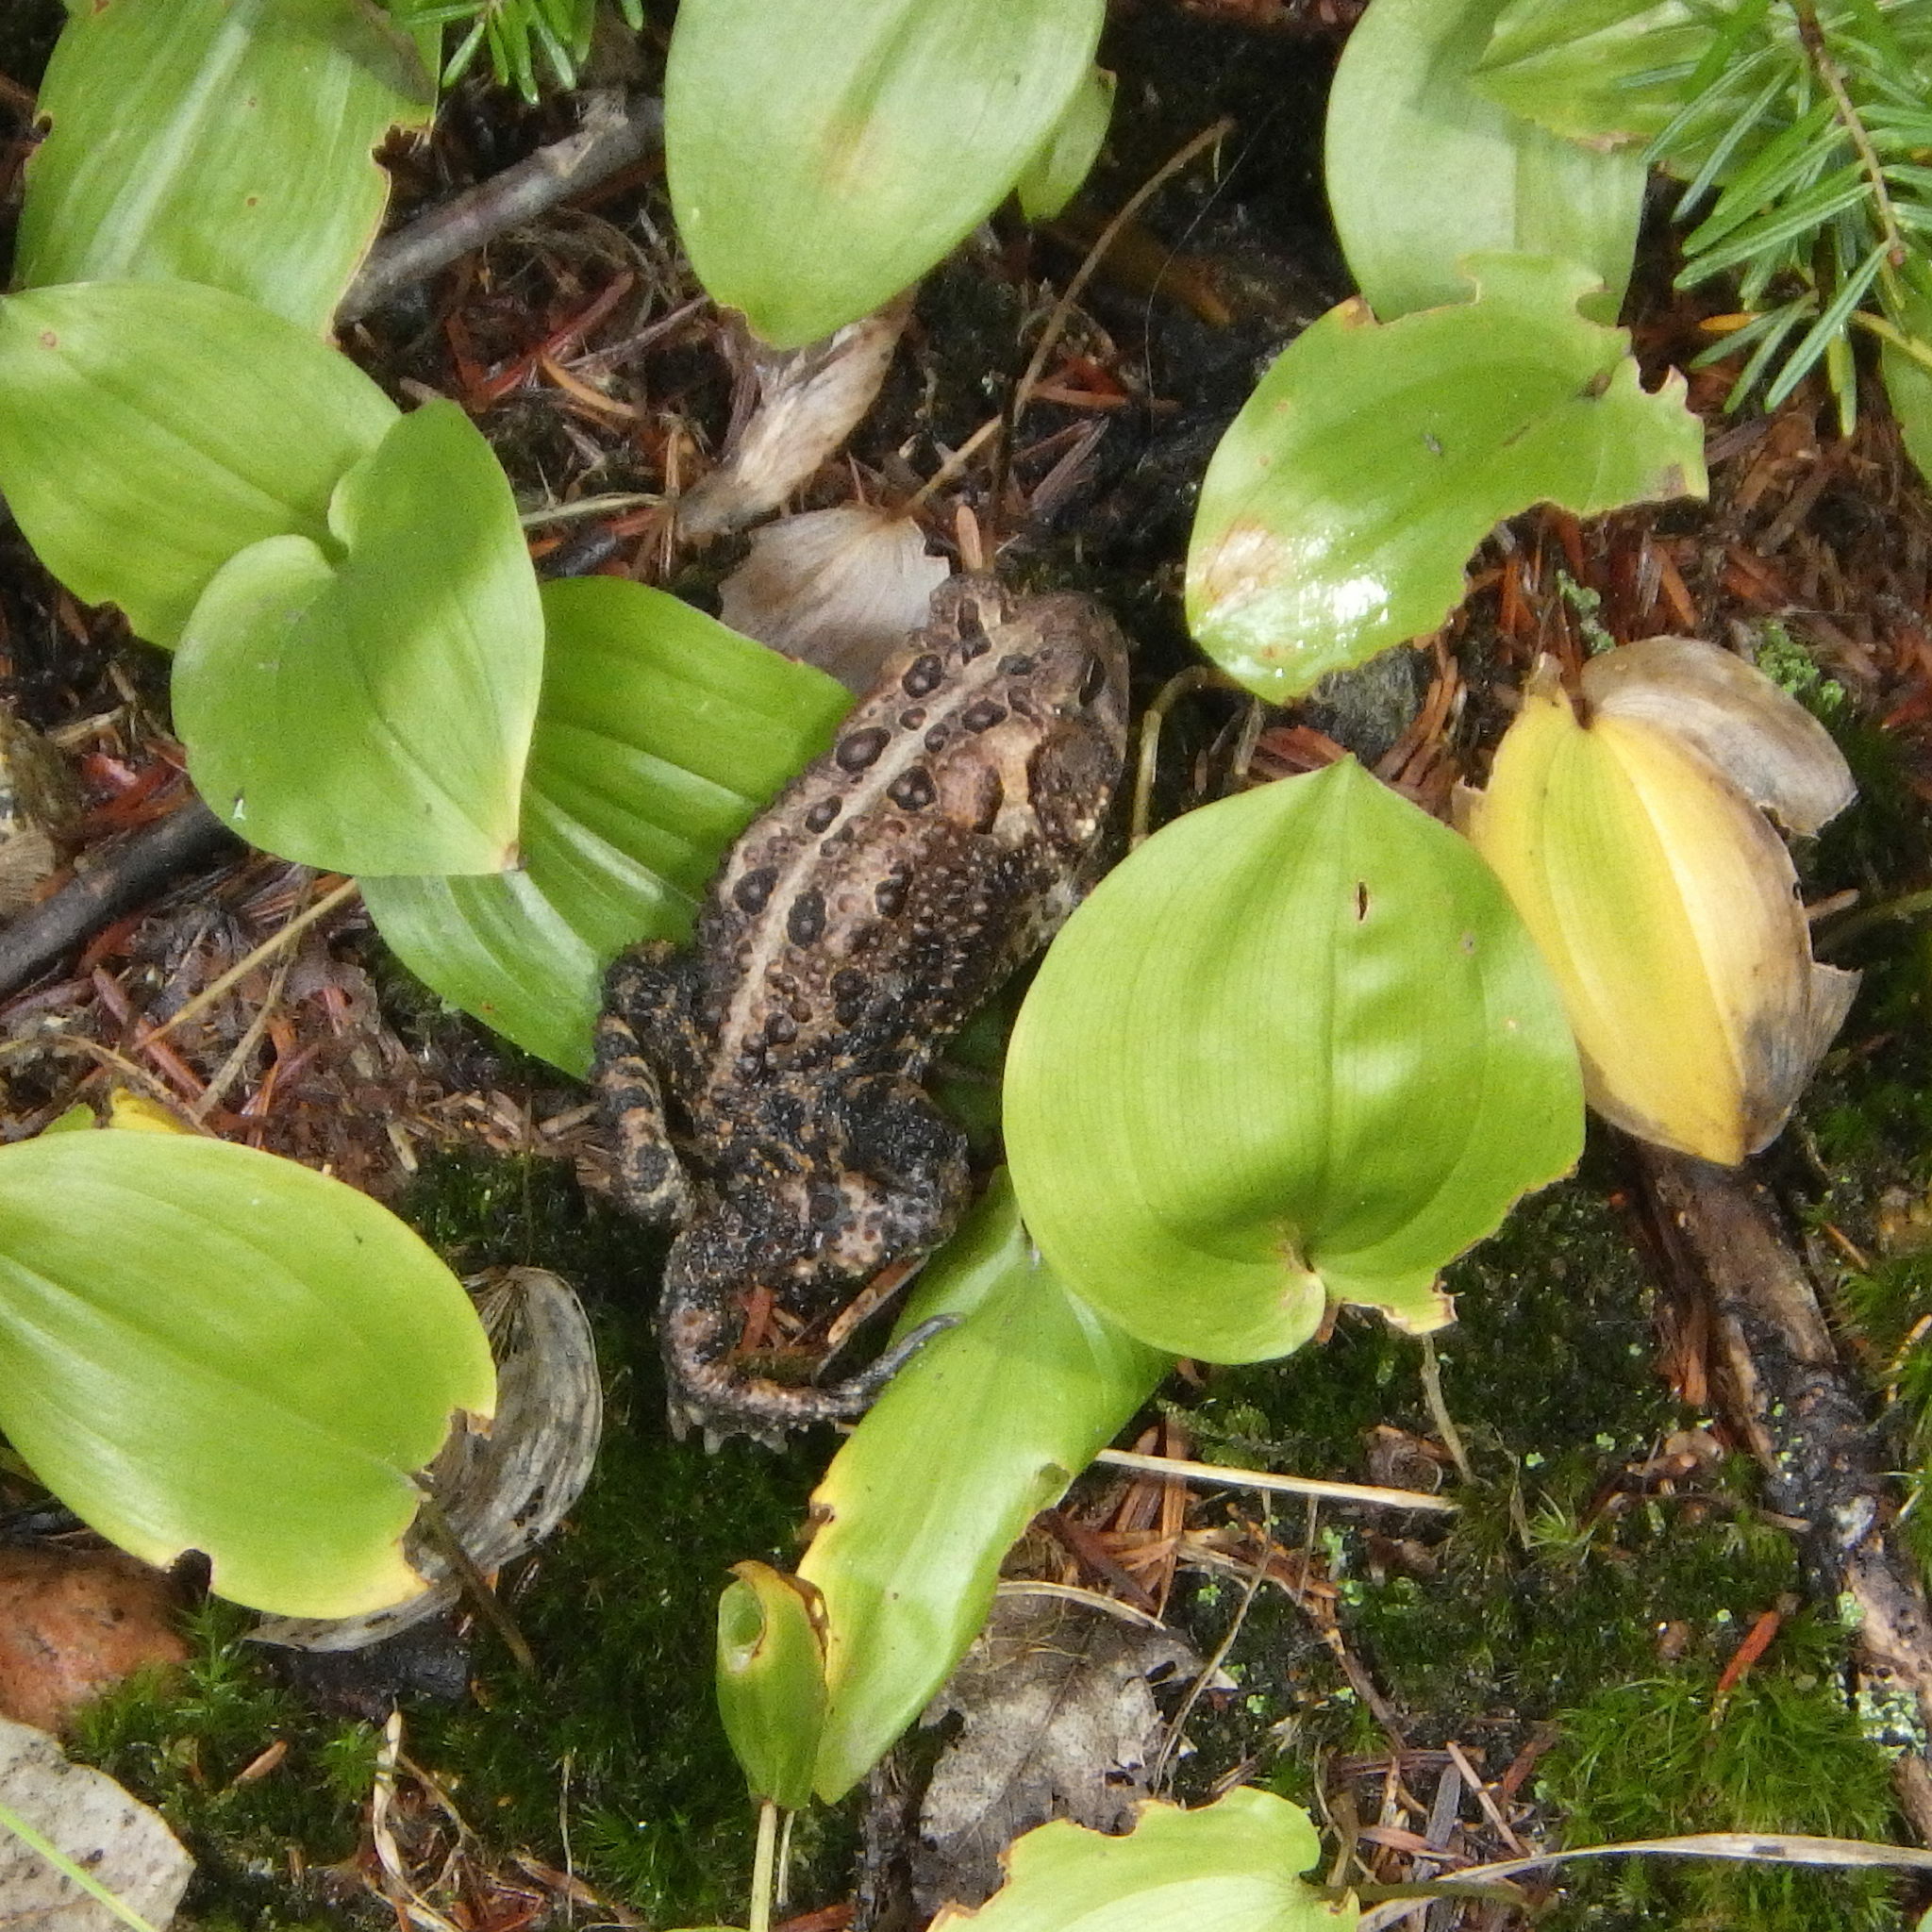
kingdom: Animalia
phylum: Chordata
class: Amphibia
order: Anura
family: Bufonidae
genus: Anaxyrus
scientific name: Anaxyrus americanus
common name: American toad
